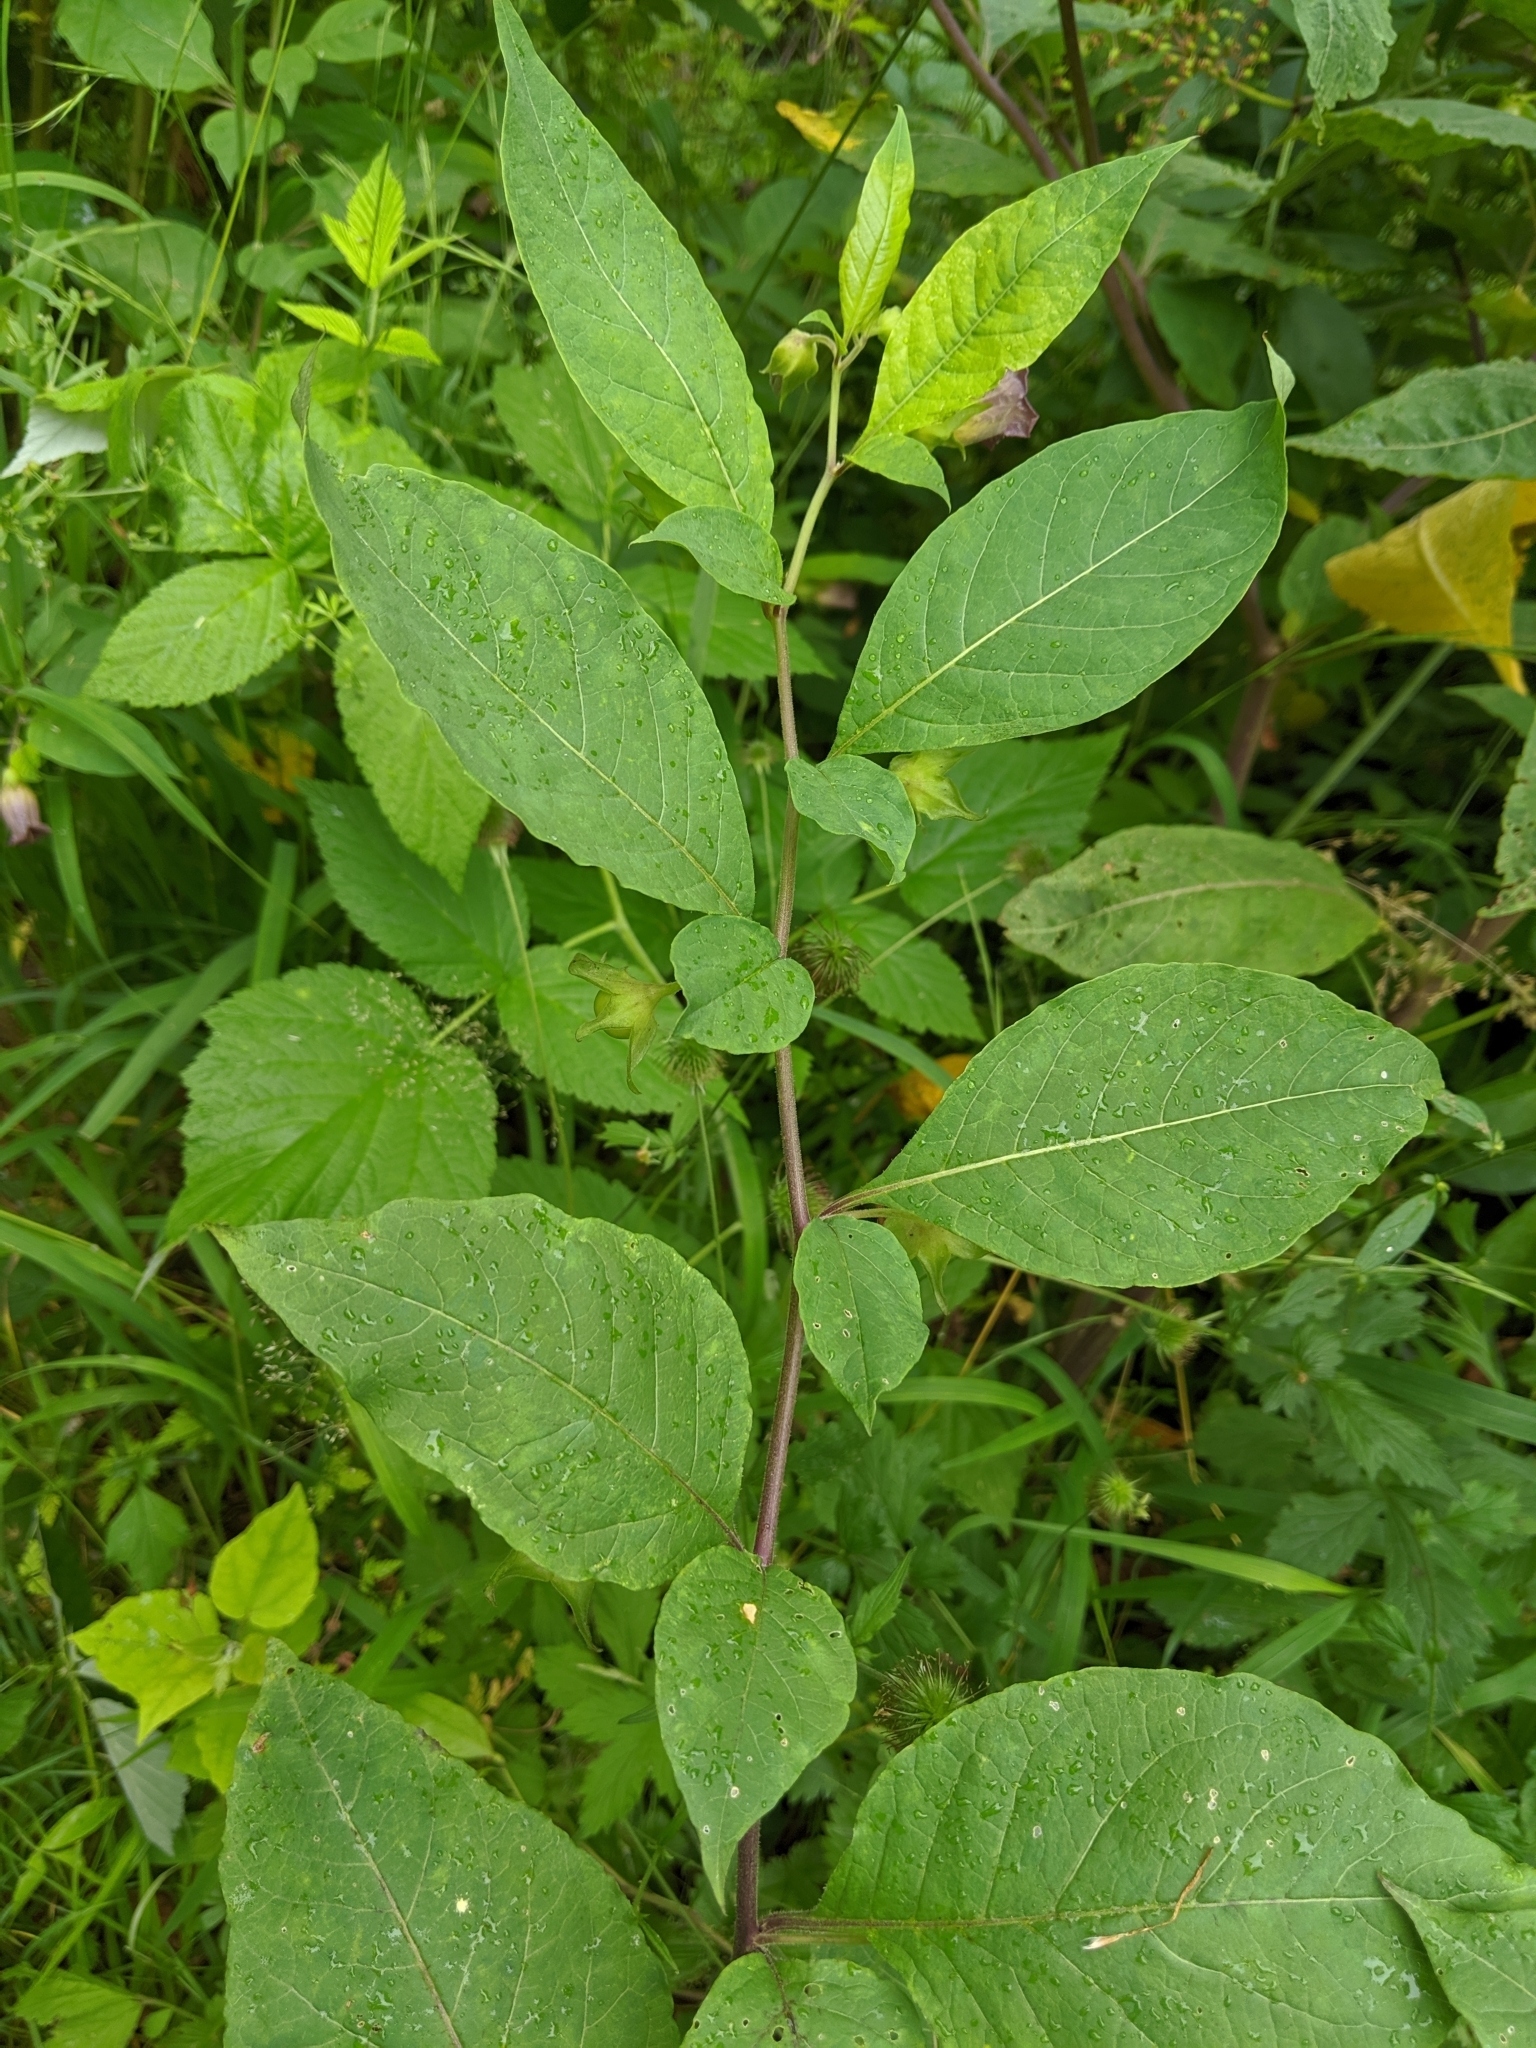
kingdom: Plantae
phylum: Tracheophyta
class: Magnoliopsida
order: Solanales
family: Solanaceae
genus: Atropa
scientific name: Atropa belladonna
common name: Deadly nightshade
